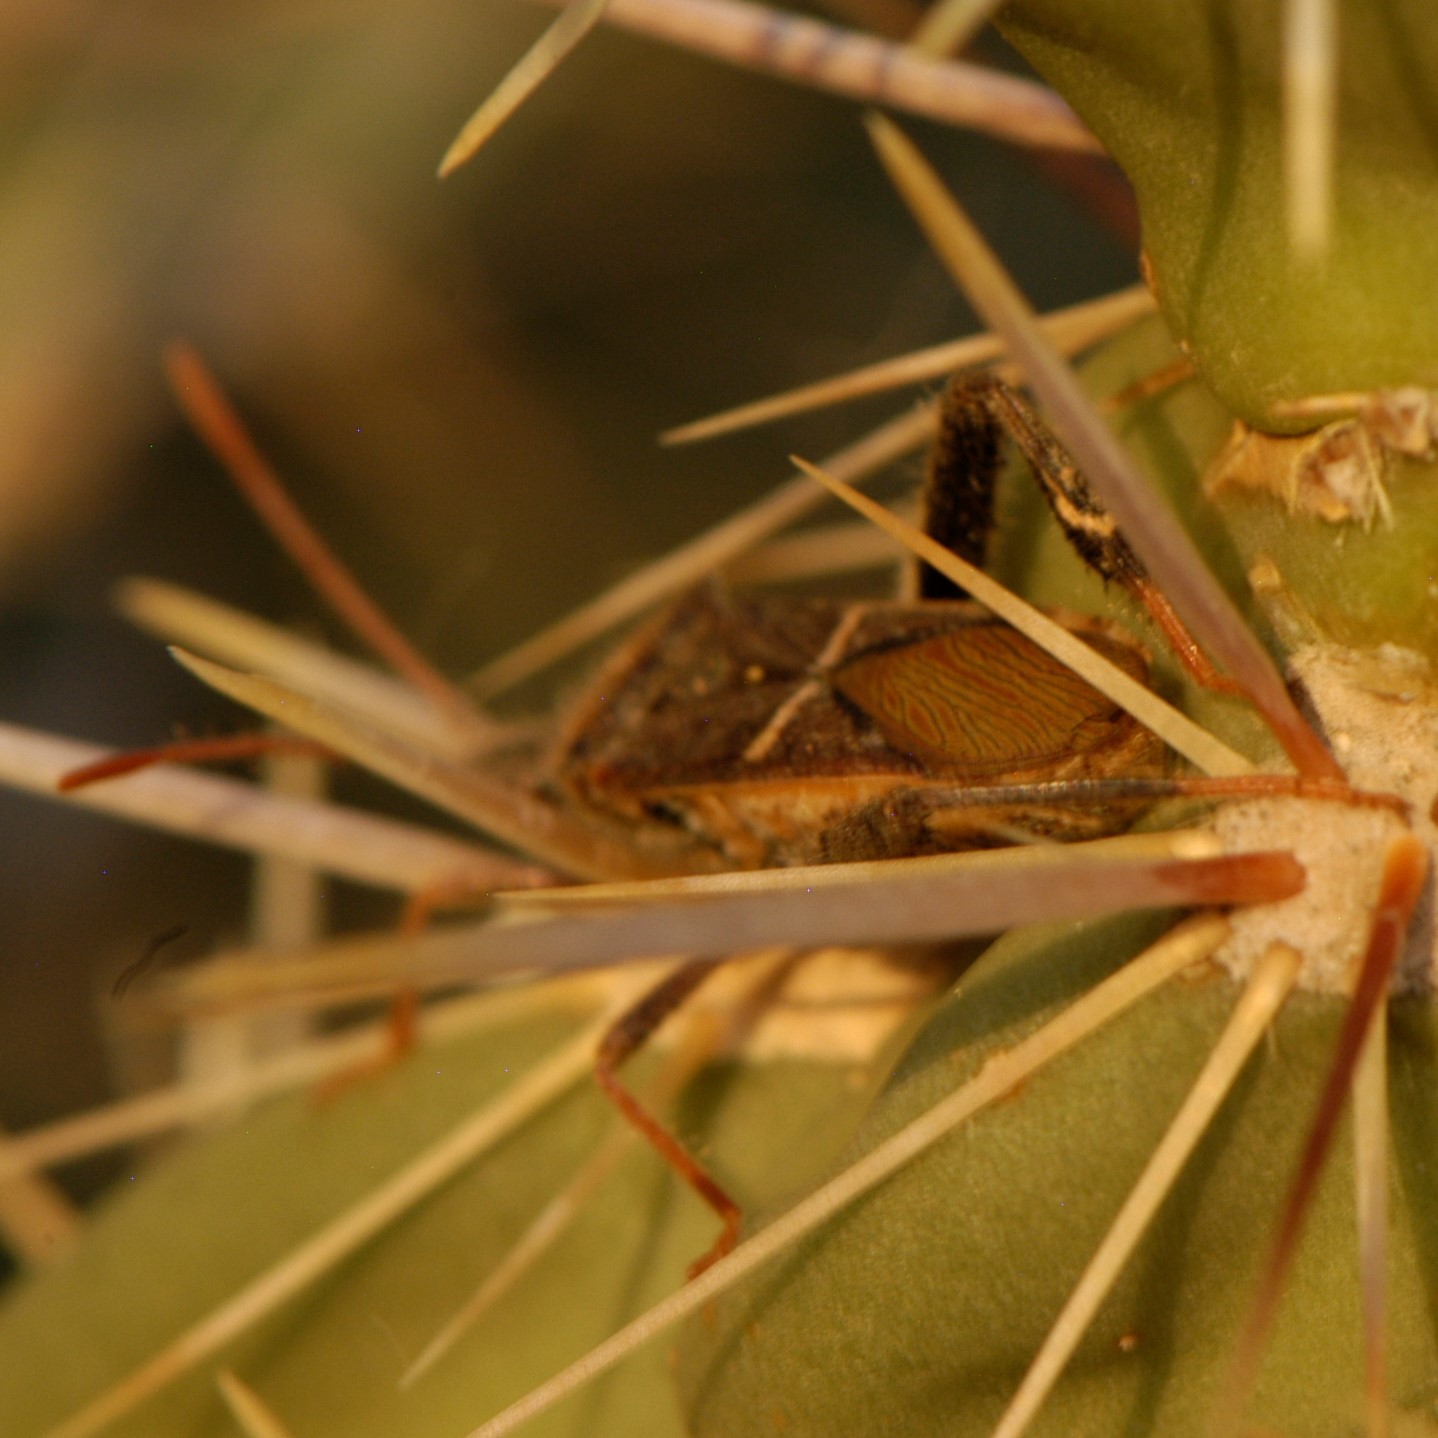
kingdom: Animalia
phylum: Arthropoda
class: Insecta
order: Hemiptera
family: Coreidae
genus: Narnia
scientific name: Narnia snowi
